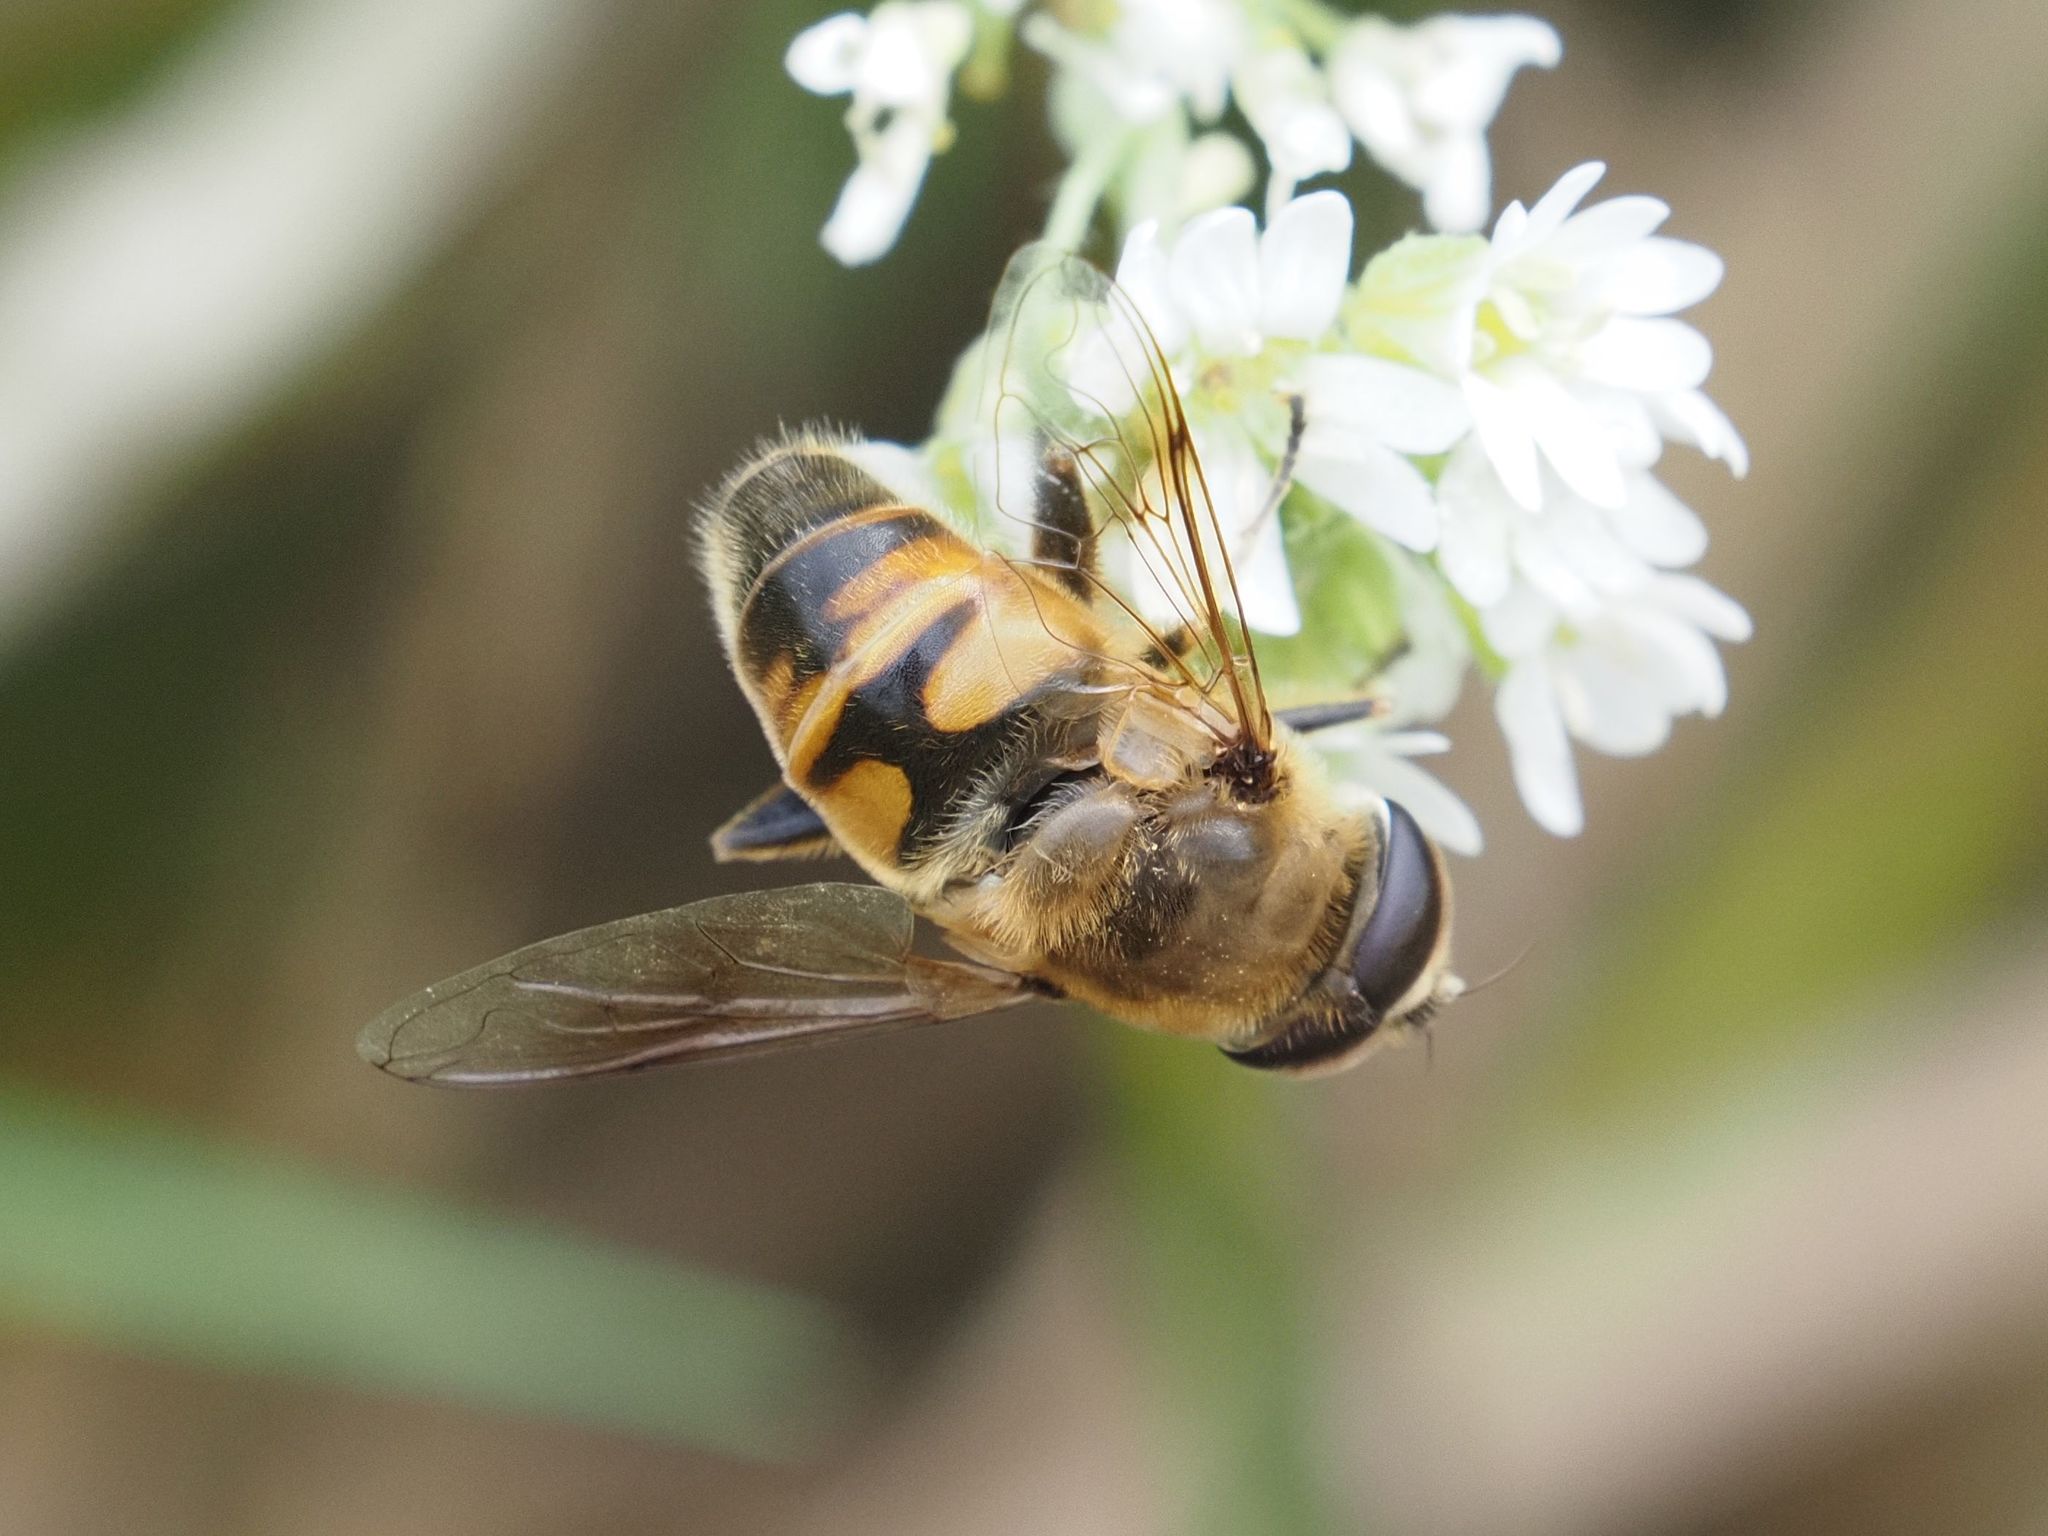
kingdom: Animalia
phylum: Arthropoda
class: Insecta
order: Diptera
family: Syrphidae
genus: Eristalis
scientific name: Eristalis tenax
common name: Drone fly
